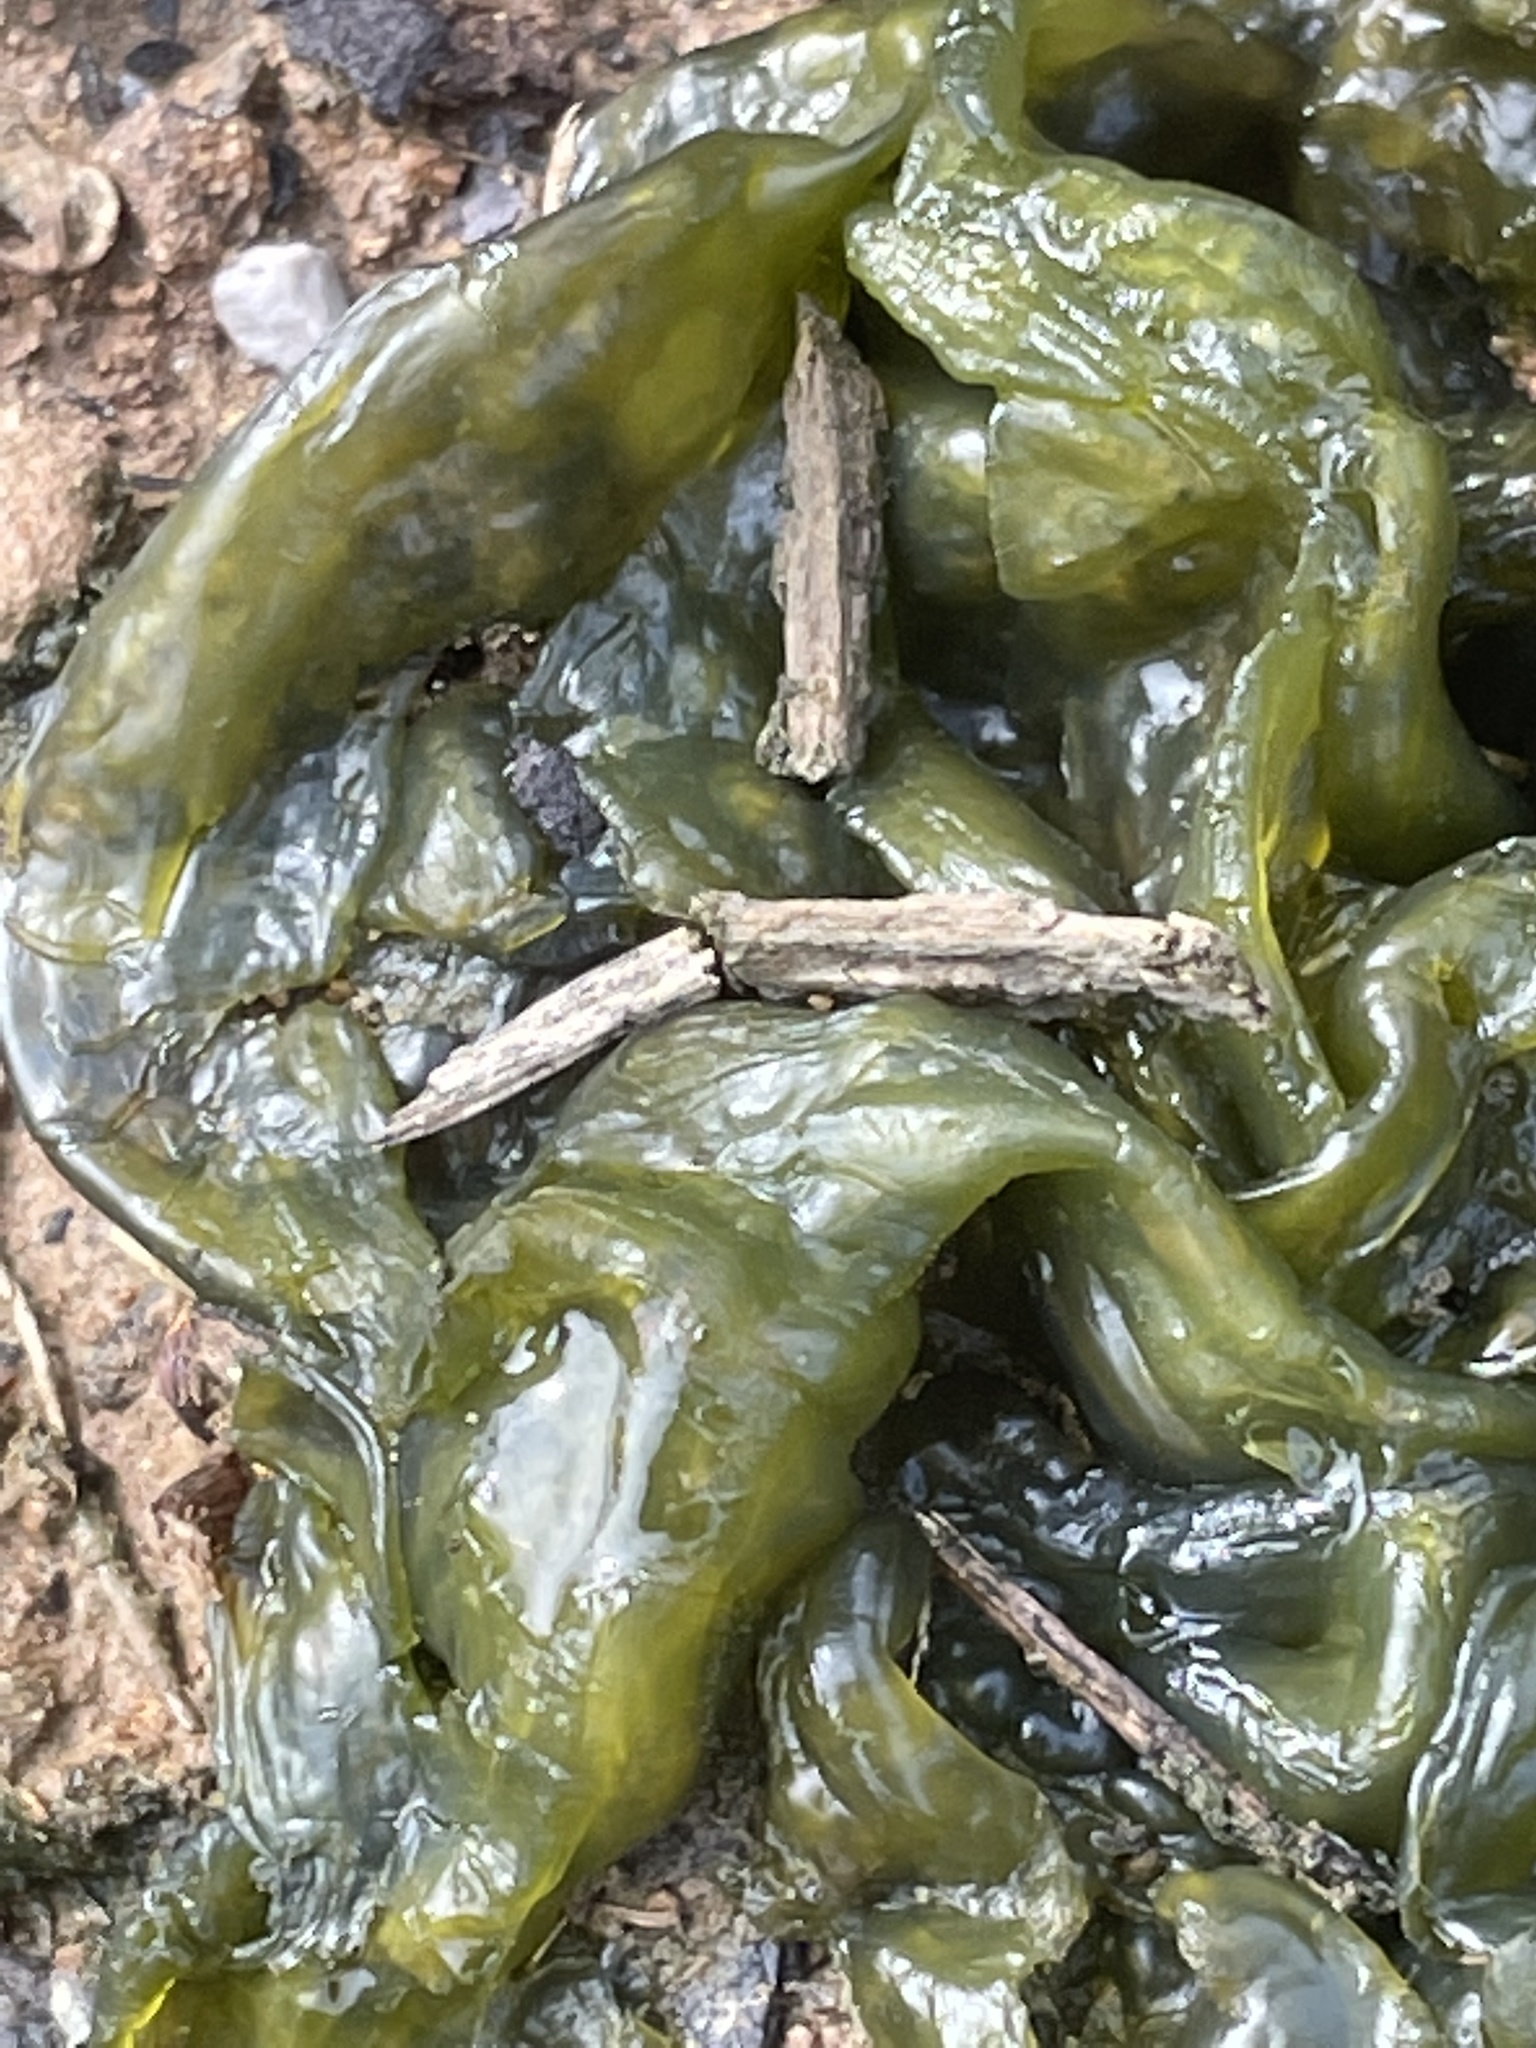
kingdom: Bacteria
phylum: Cyanobacteria
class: Cyanobacteriia
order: Cyanobacteriales
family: Nostocaceae
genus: Nostoc
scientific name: Nostoc commune
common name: Star jelly
